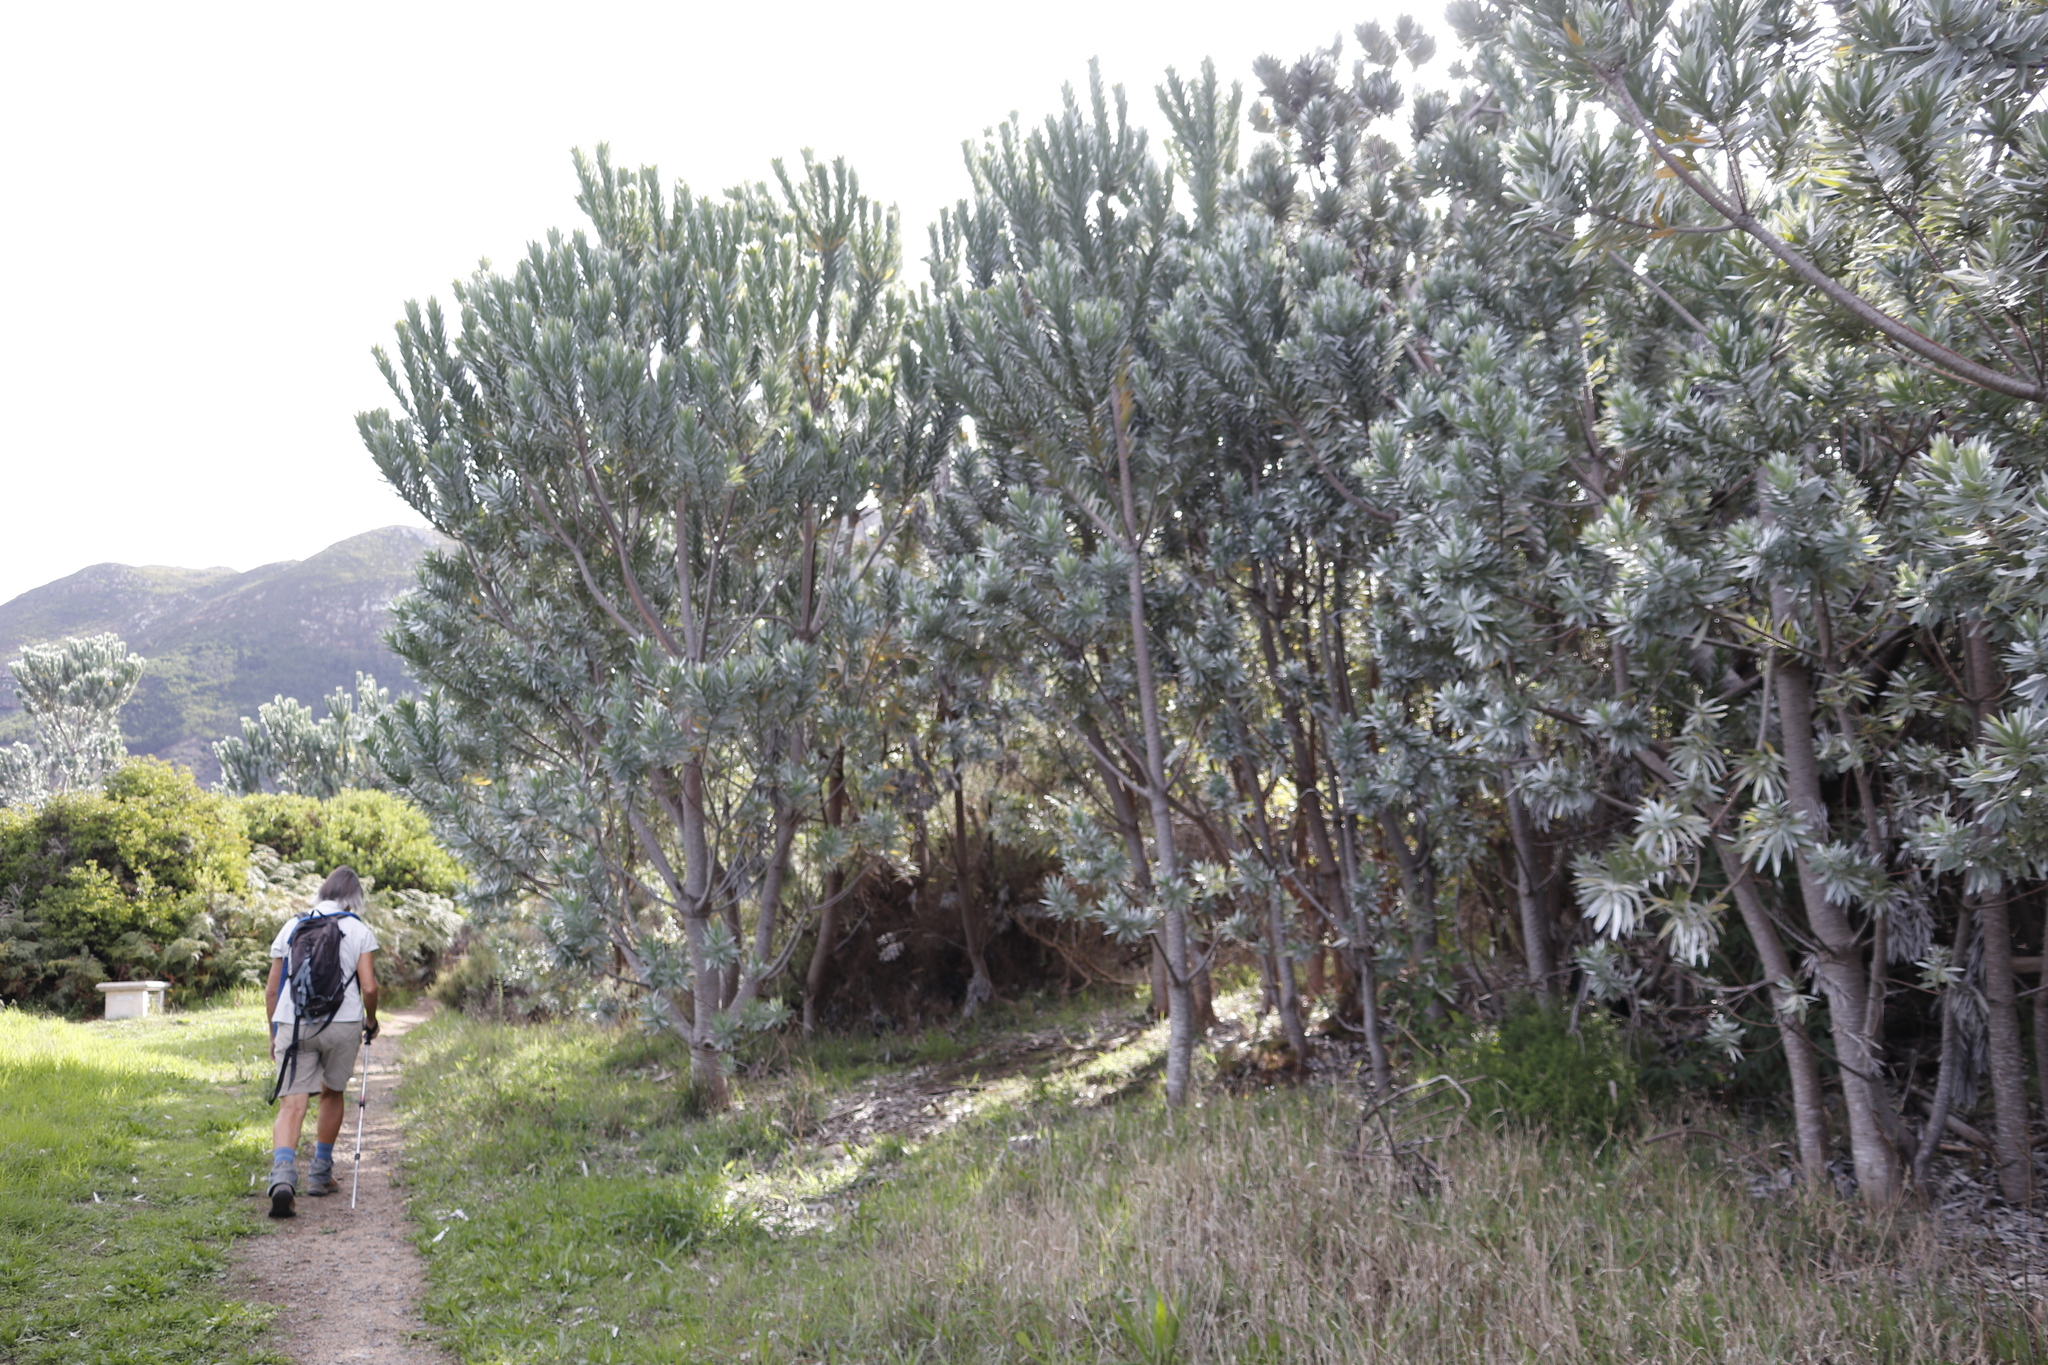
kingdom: Plantae
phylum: Tracheophyta
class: Magnoliopsida
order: Proteales
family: Proteaceae
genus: Leucadendron
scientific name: Leucadendron argenteum
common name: Cape silver tree
